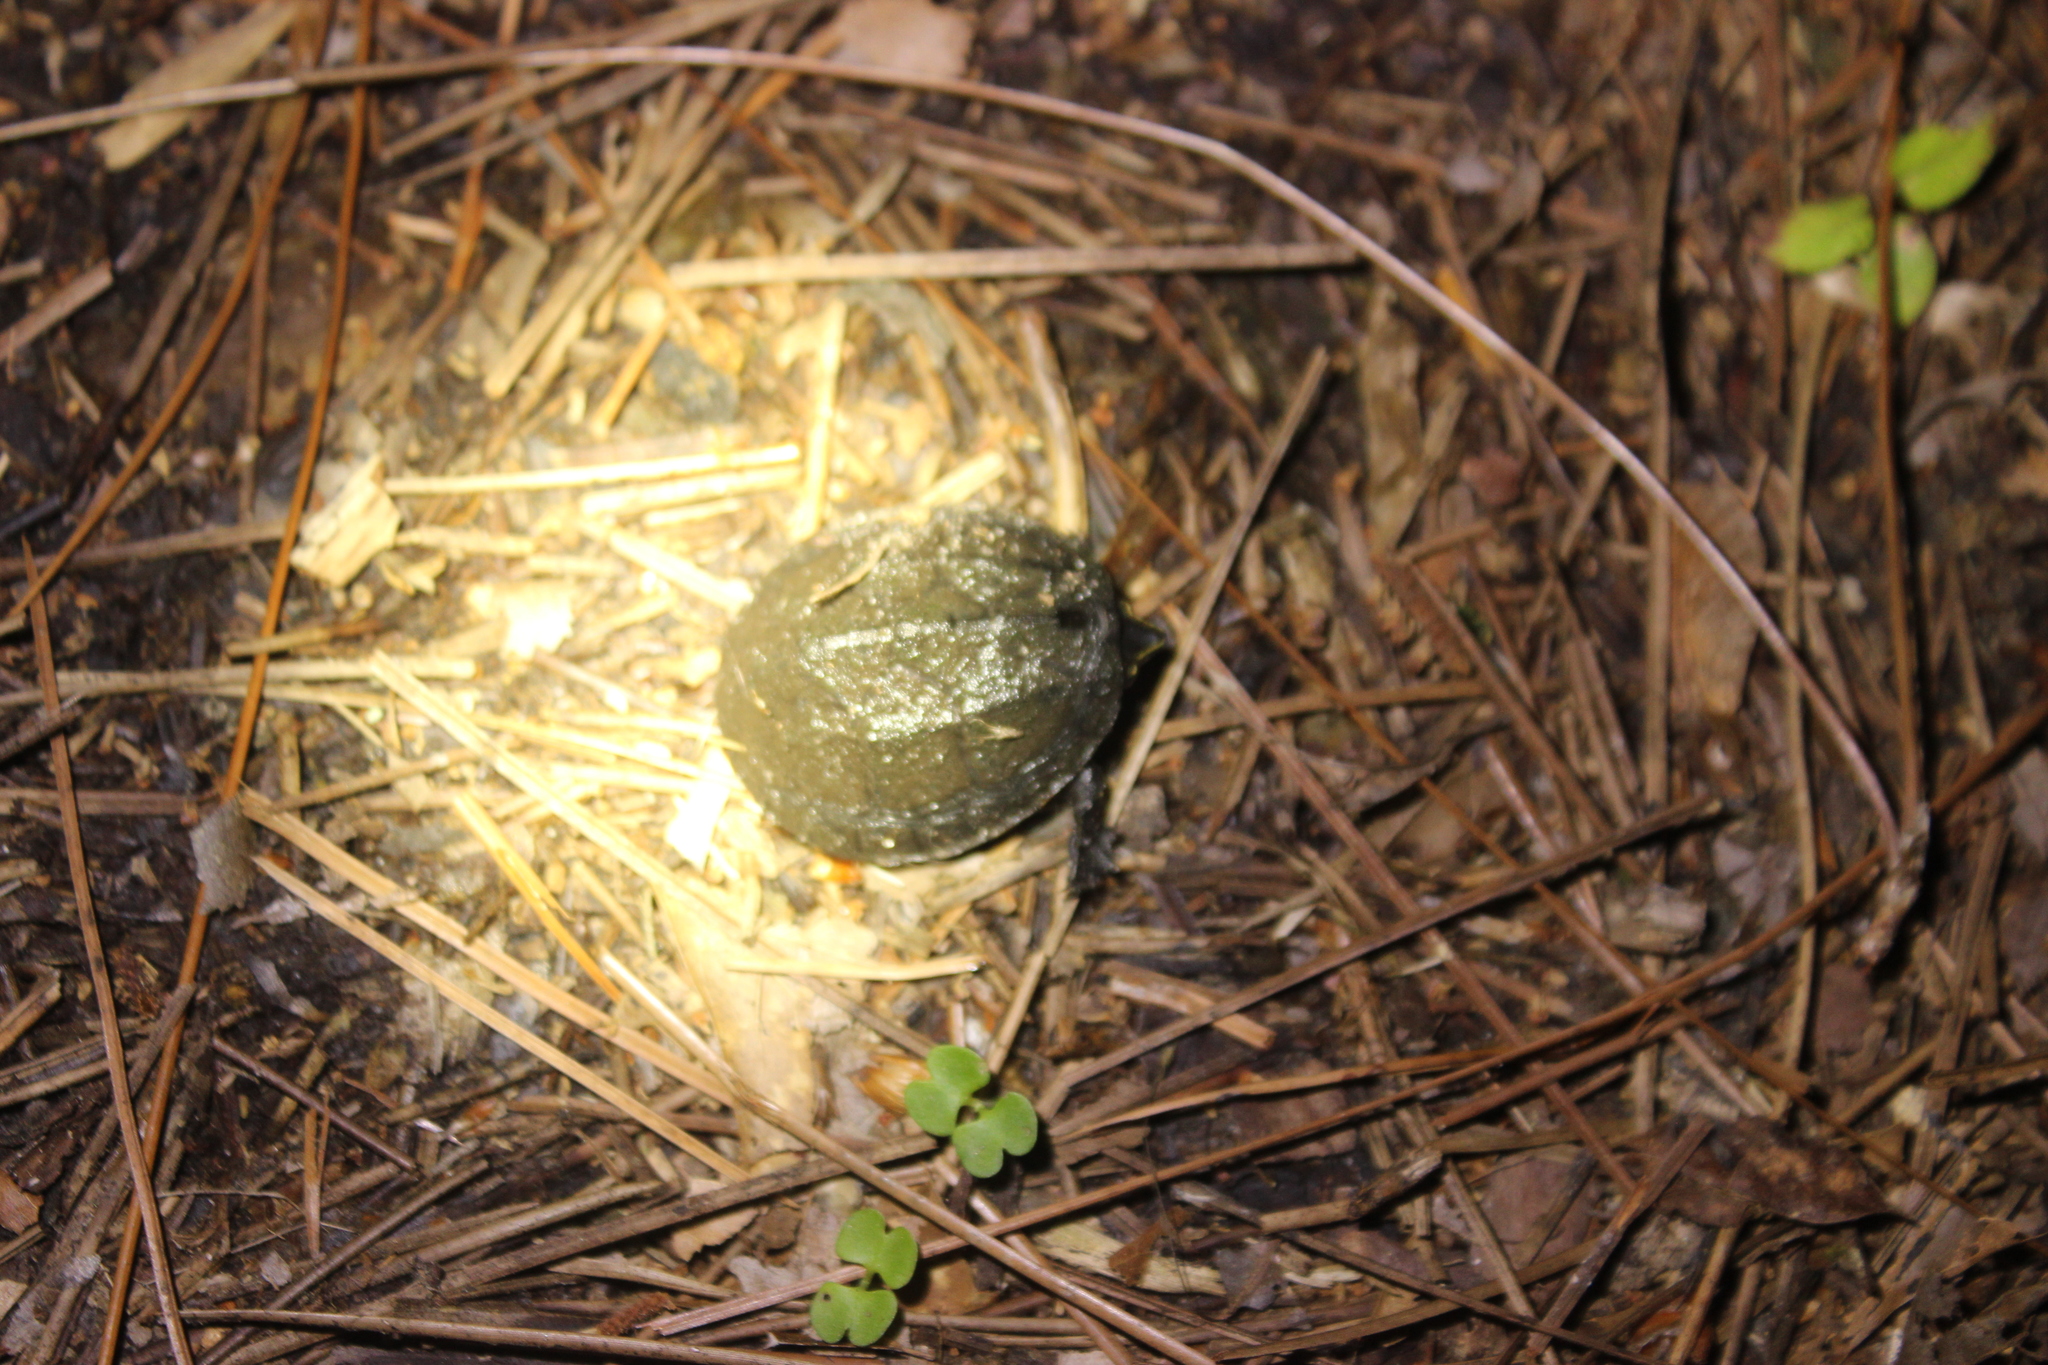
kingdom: Animalia
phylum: Chordata
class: Testudines
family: Kinosternidae
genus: Sternotherus
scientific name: Sternotherus odoratus
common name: Common musk turtle
